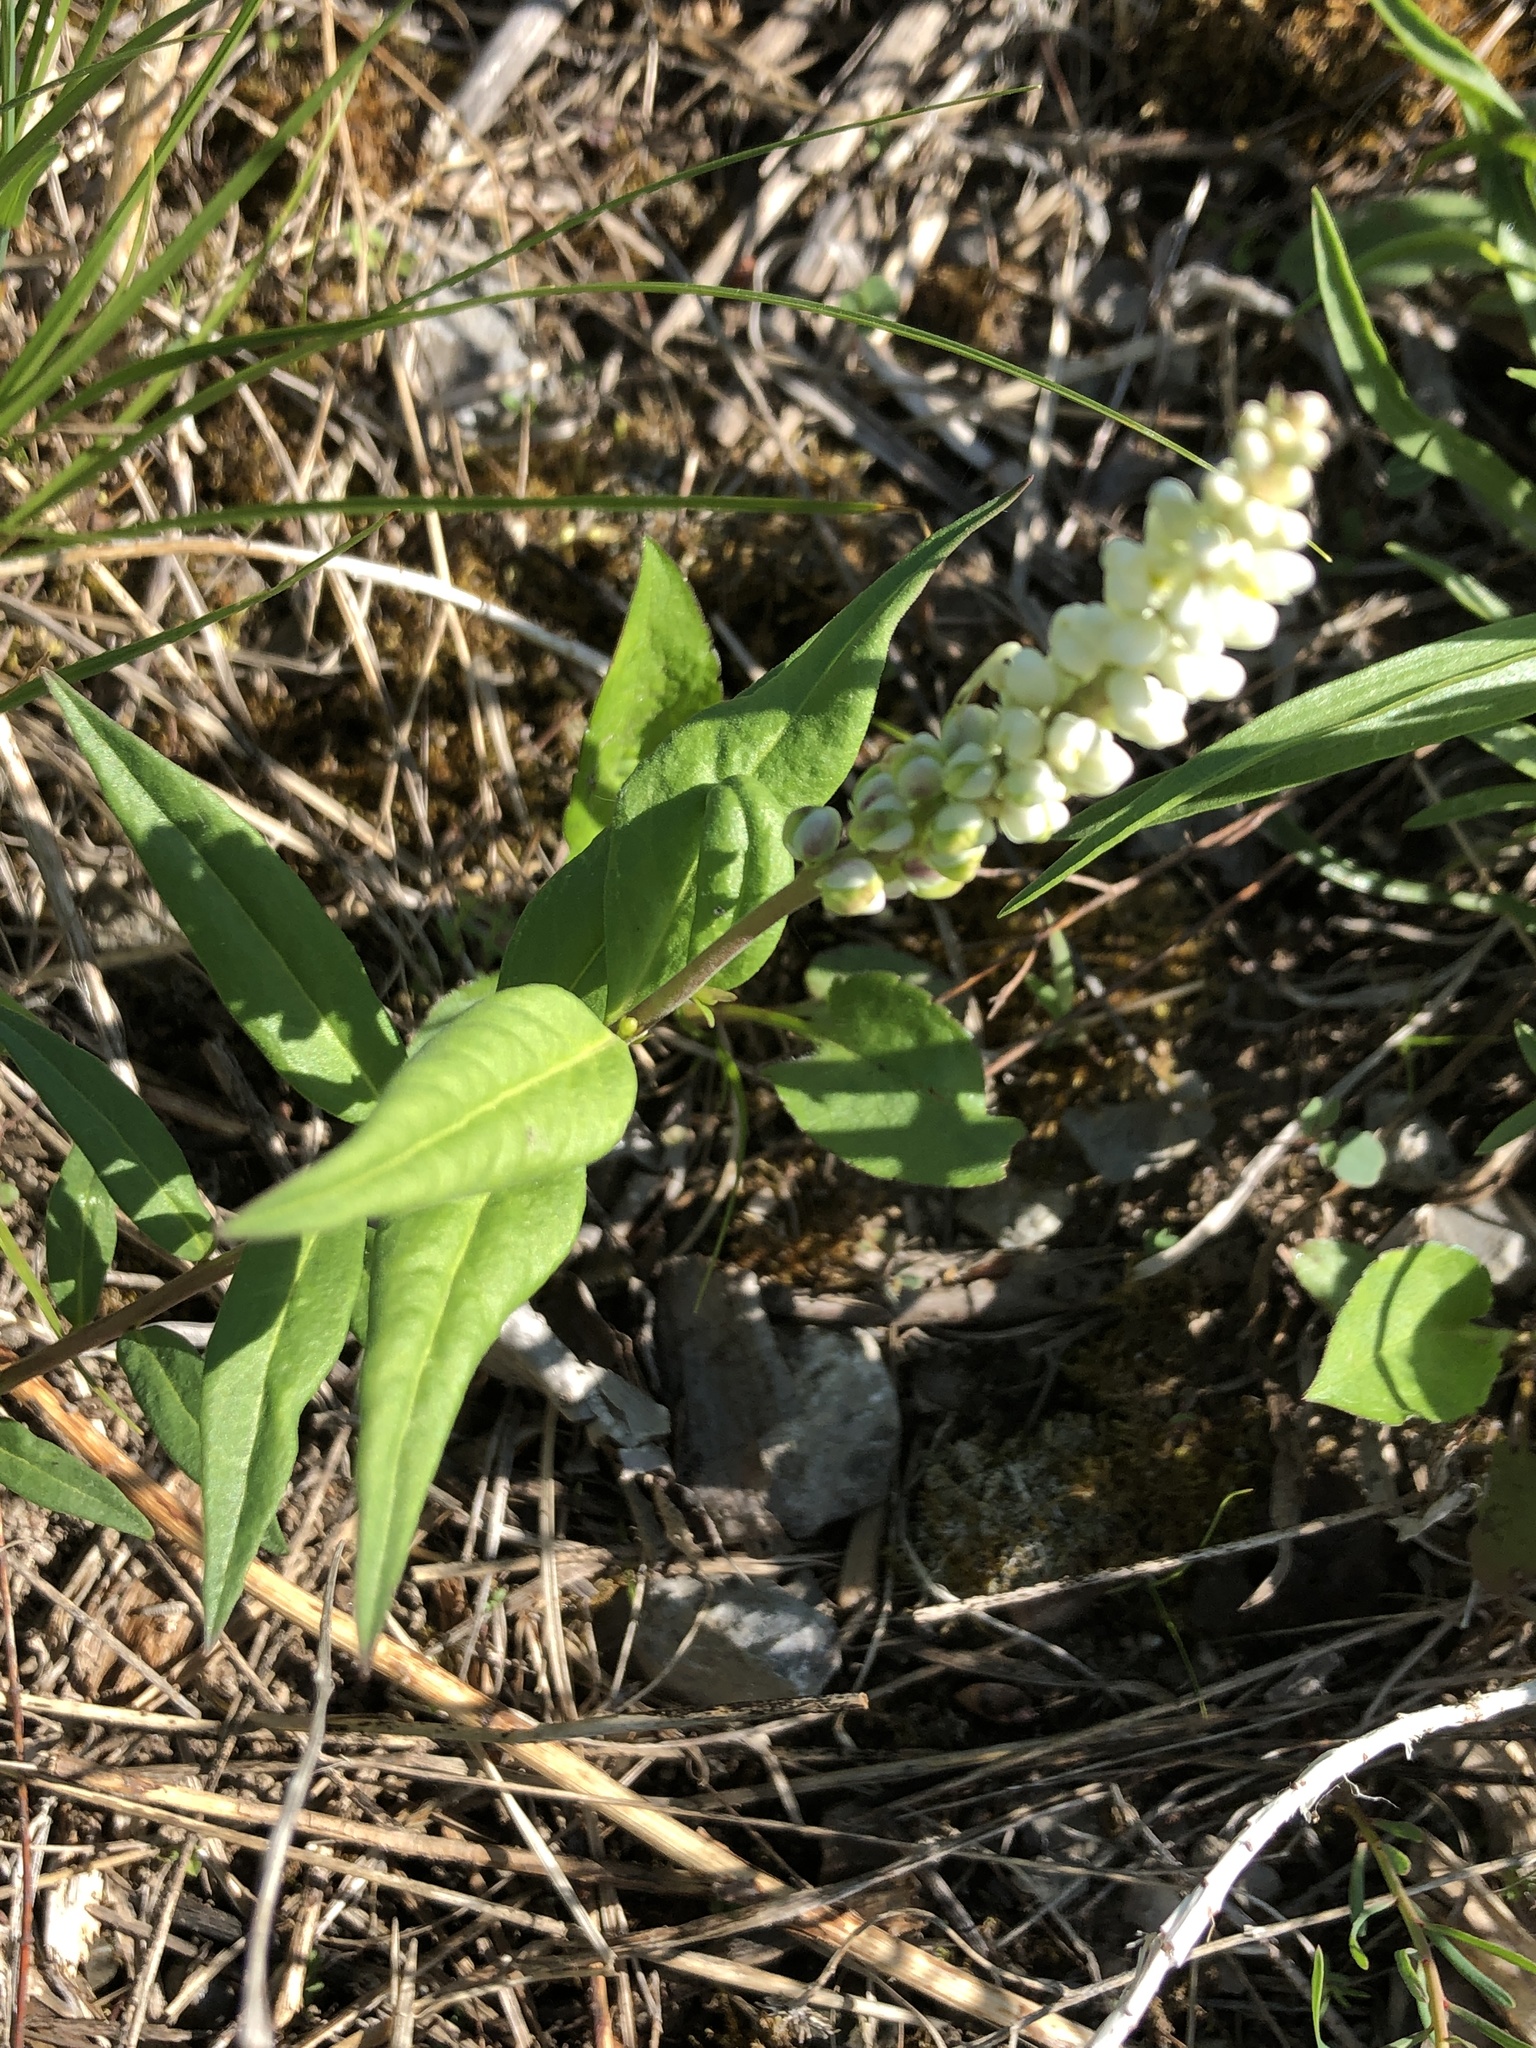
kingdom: Plantae
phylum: Tracheophyta
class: Magnoliopsida
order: Fabales
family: Polygalaceae
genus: Polygala
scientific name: Polygala senega
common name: Seneca snakeroot
